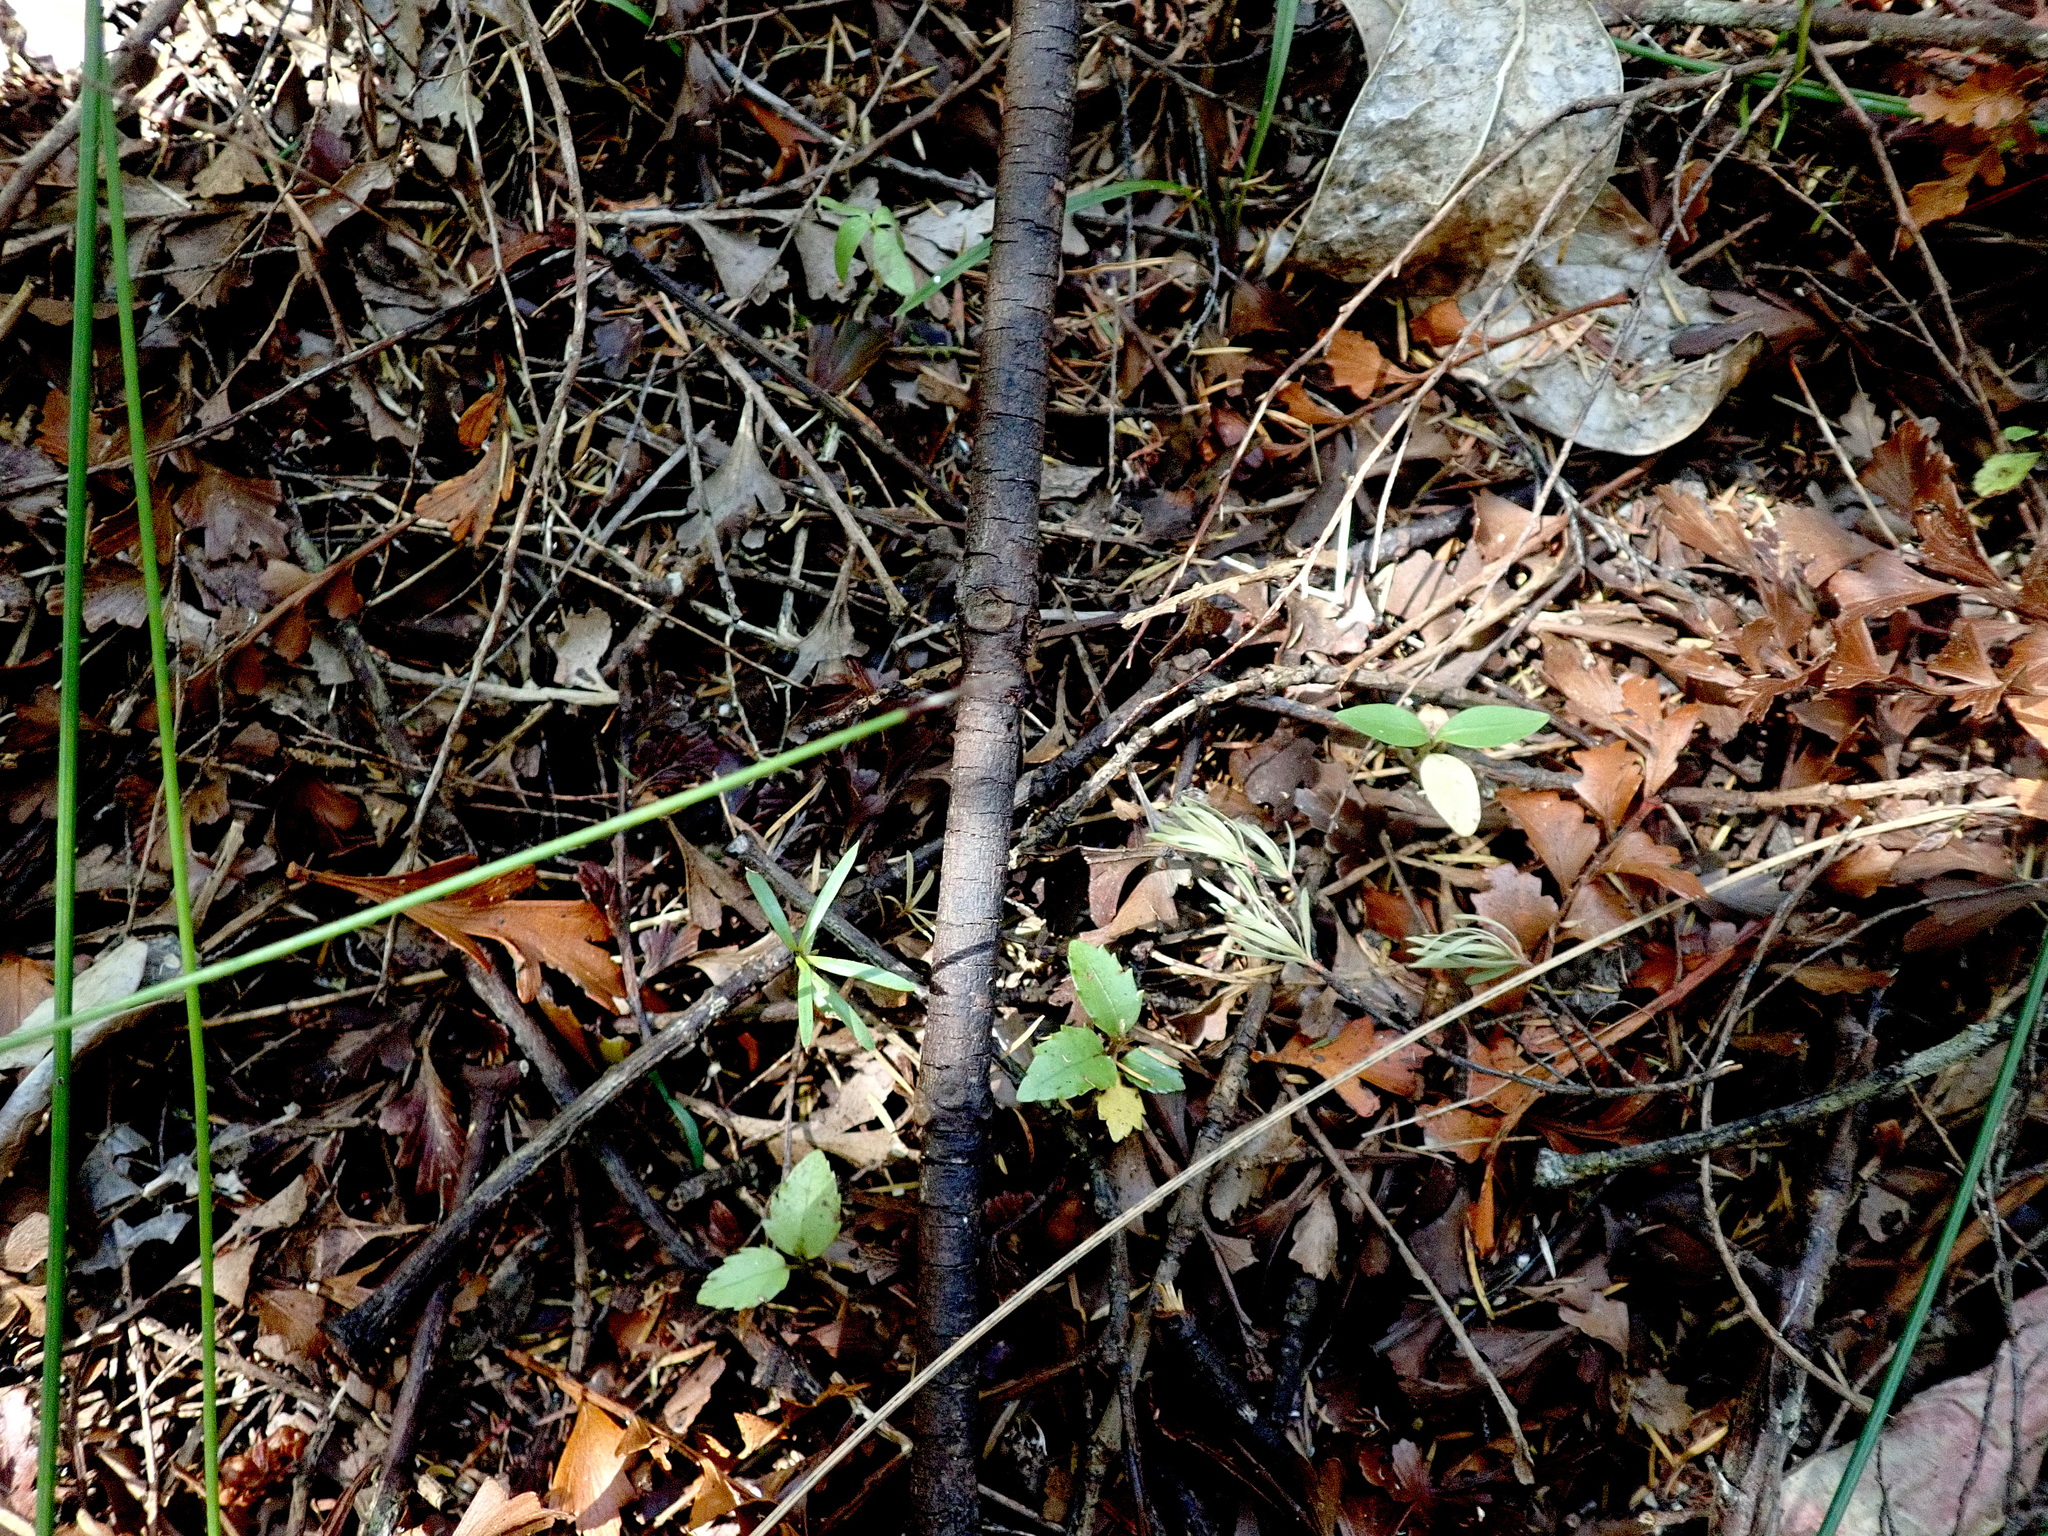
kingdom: Plantae
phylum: Tracheophyta
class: Magnoliopsida
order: Gentianales
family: Rubiaceae
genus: Coprosma
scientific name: Coprosma lucida
